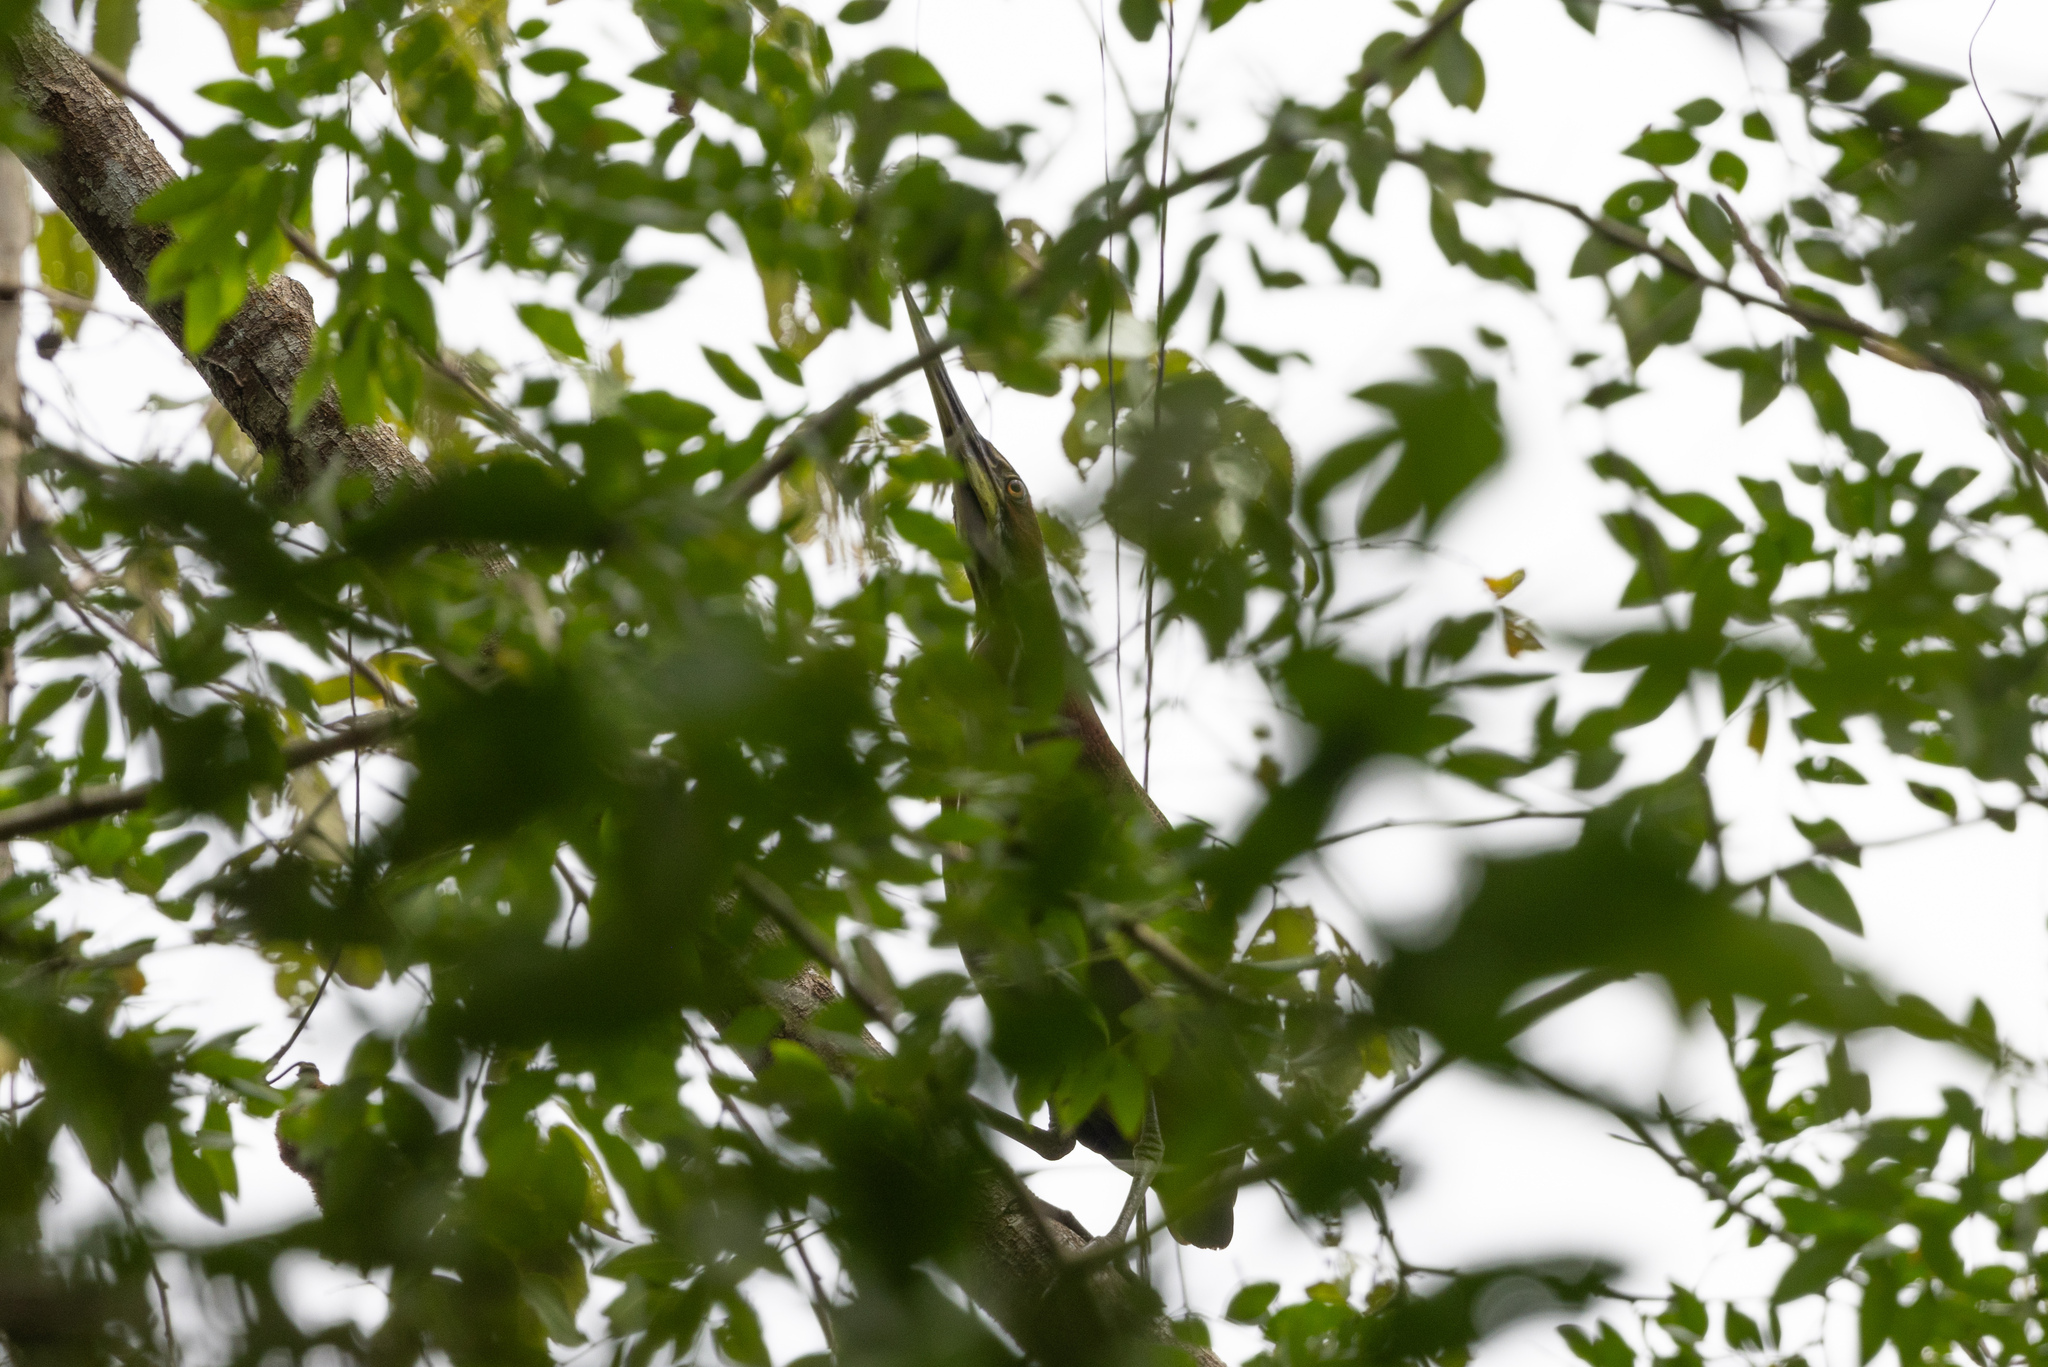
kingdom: Animalia
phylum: Chordata
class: Aves
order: Pelecaniformes
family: Ardeidae
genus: Tigrisoma
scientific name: Tigrisoma lineatum
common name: Rufescent tiger-heron
